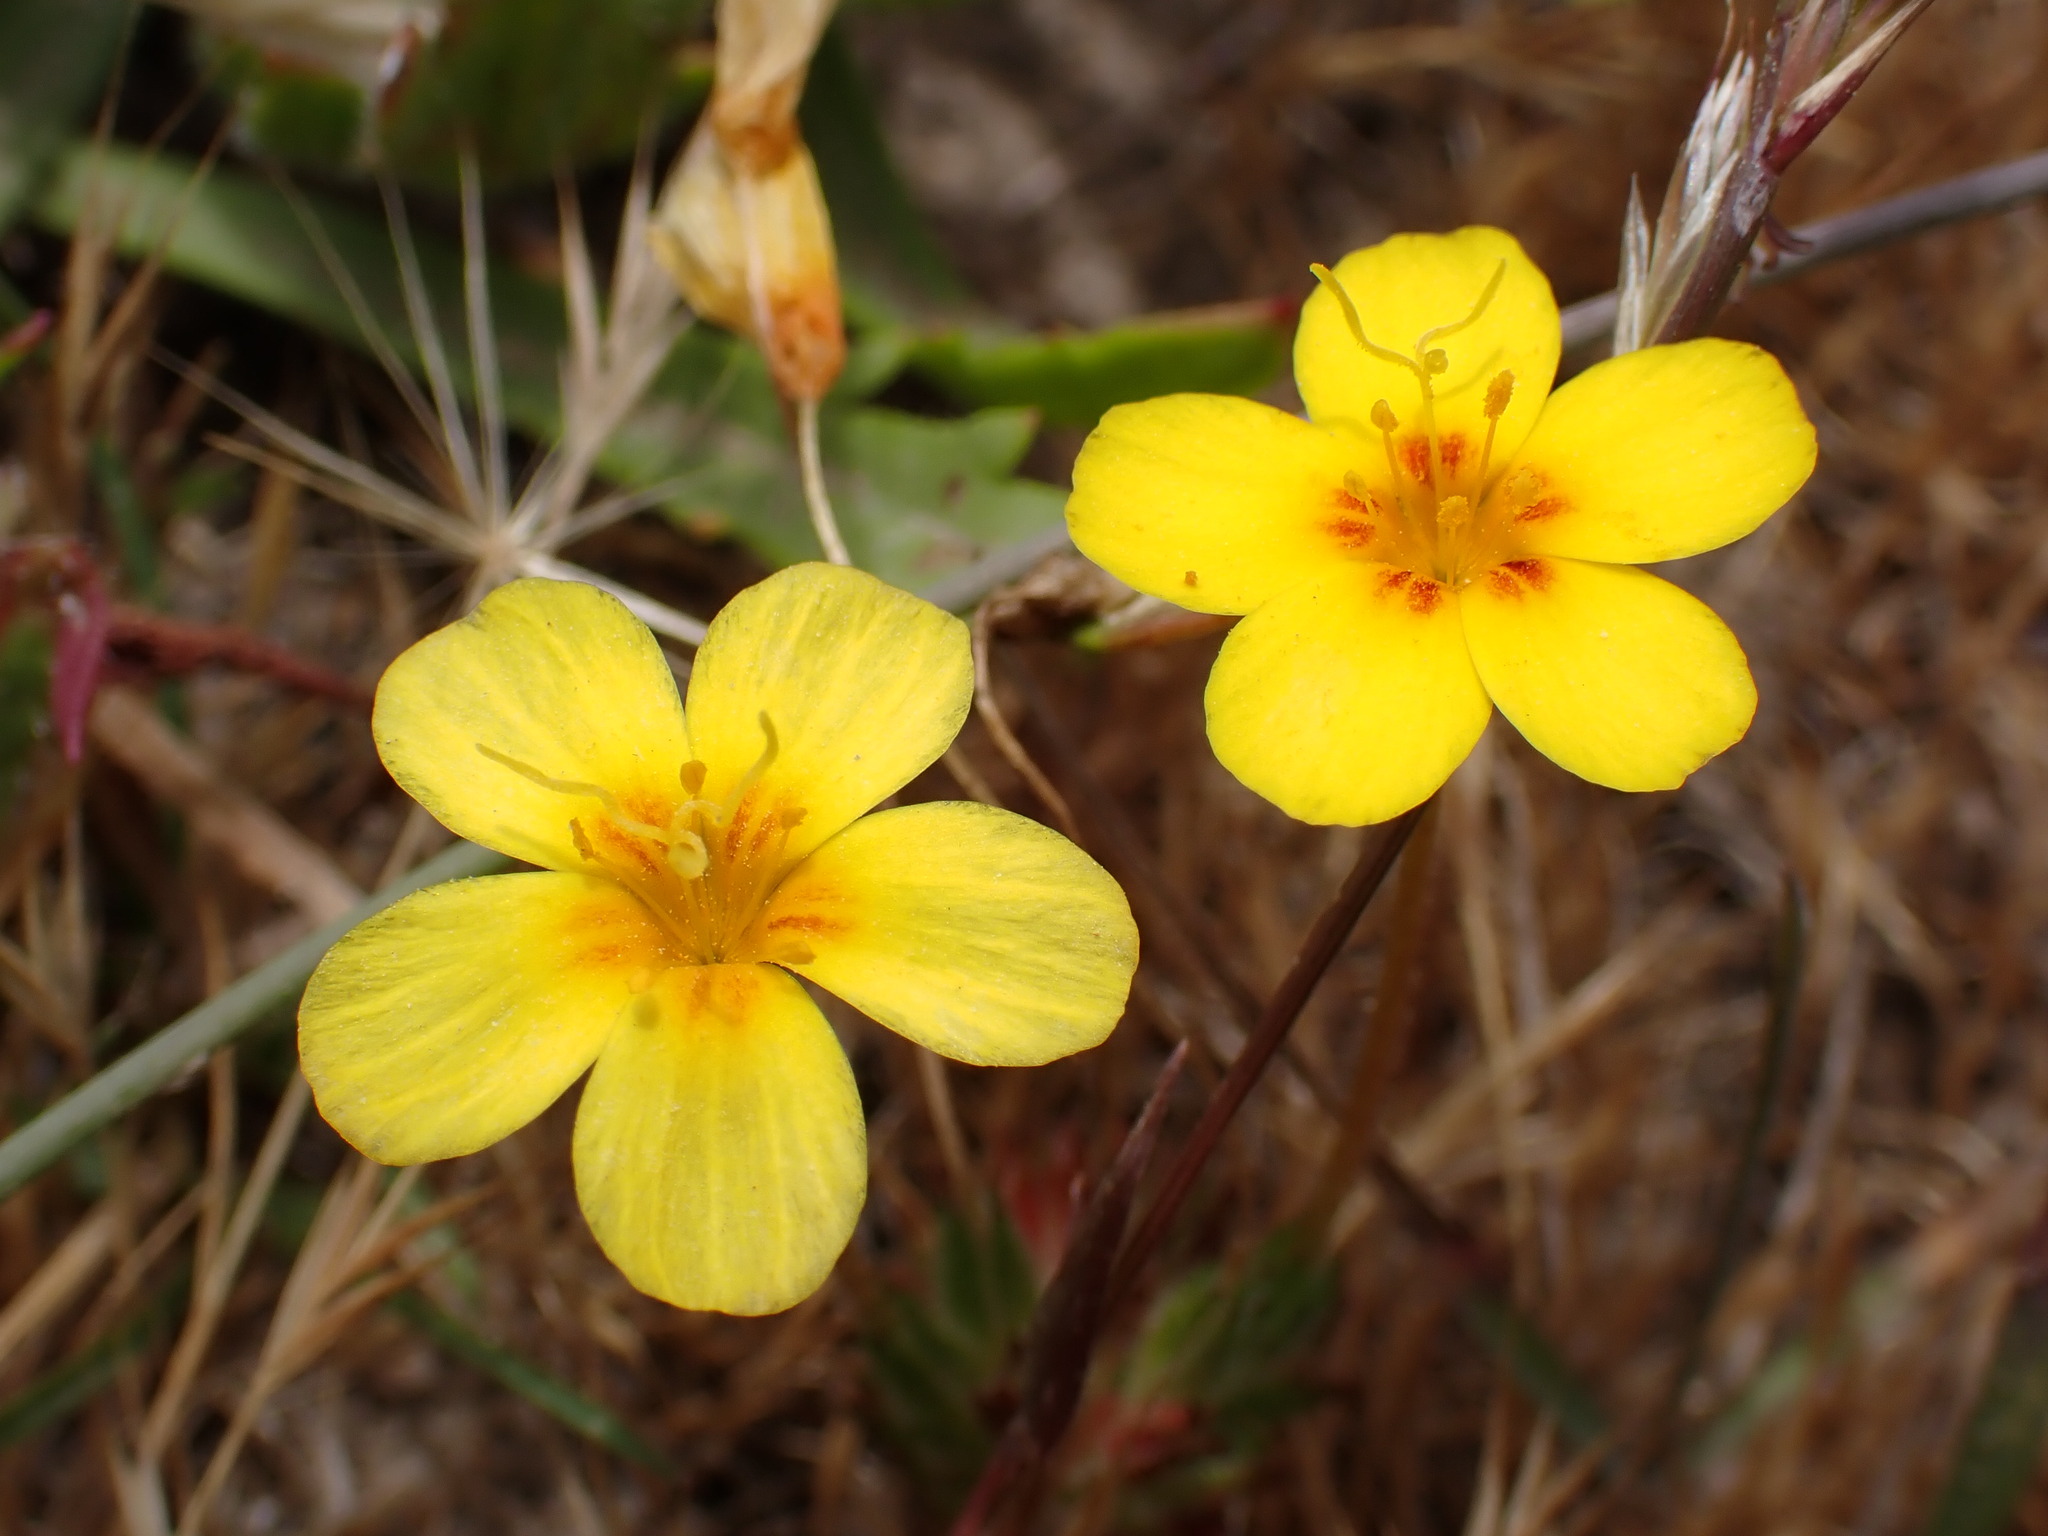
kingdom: Plantae
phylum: Tracheophyta
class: Magnoliopsida
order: Ericales
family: Polemoniaceae
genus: Leptosiphon
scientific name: Leptosiphon croceus
